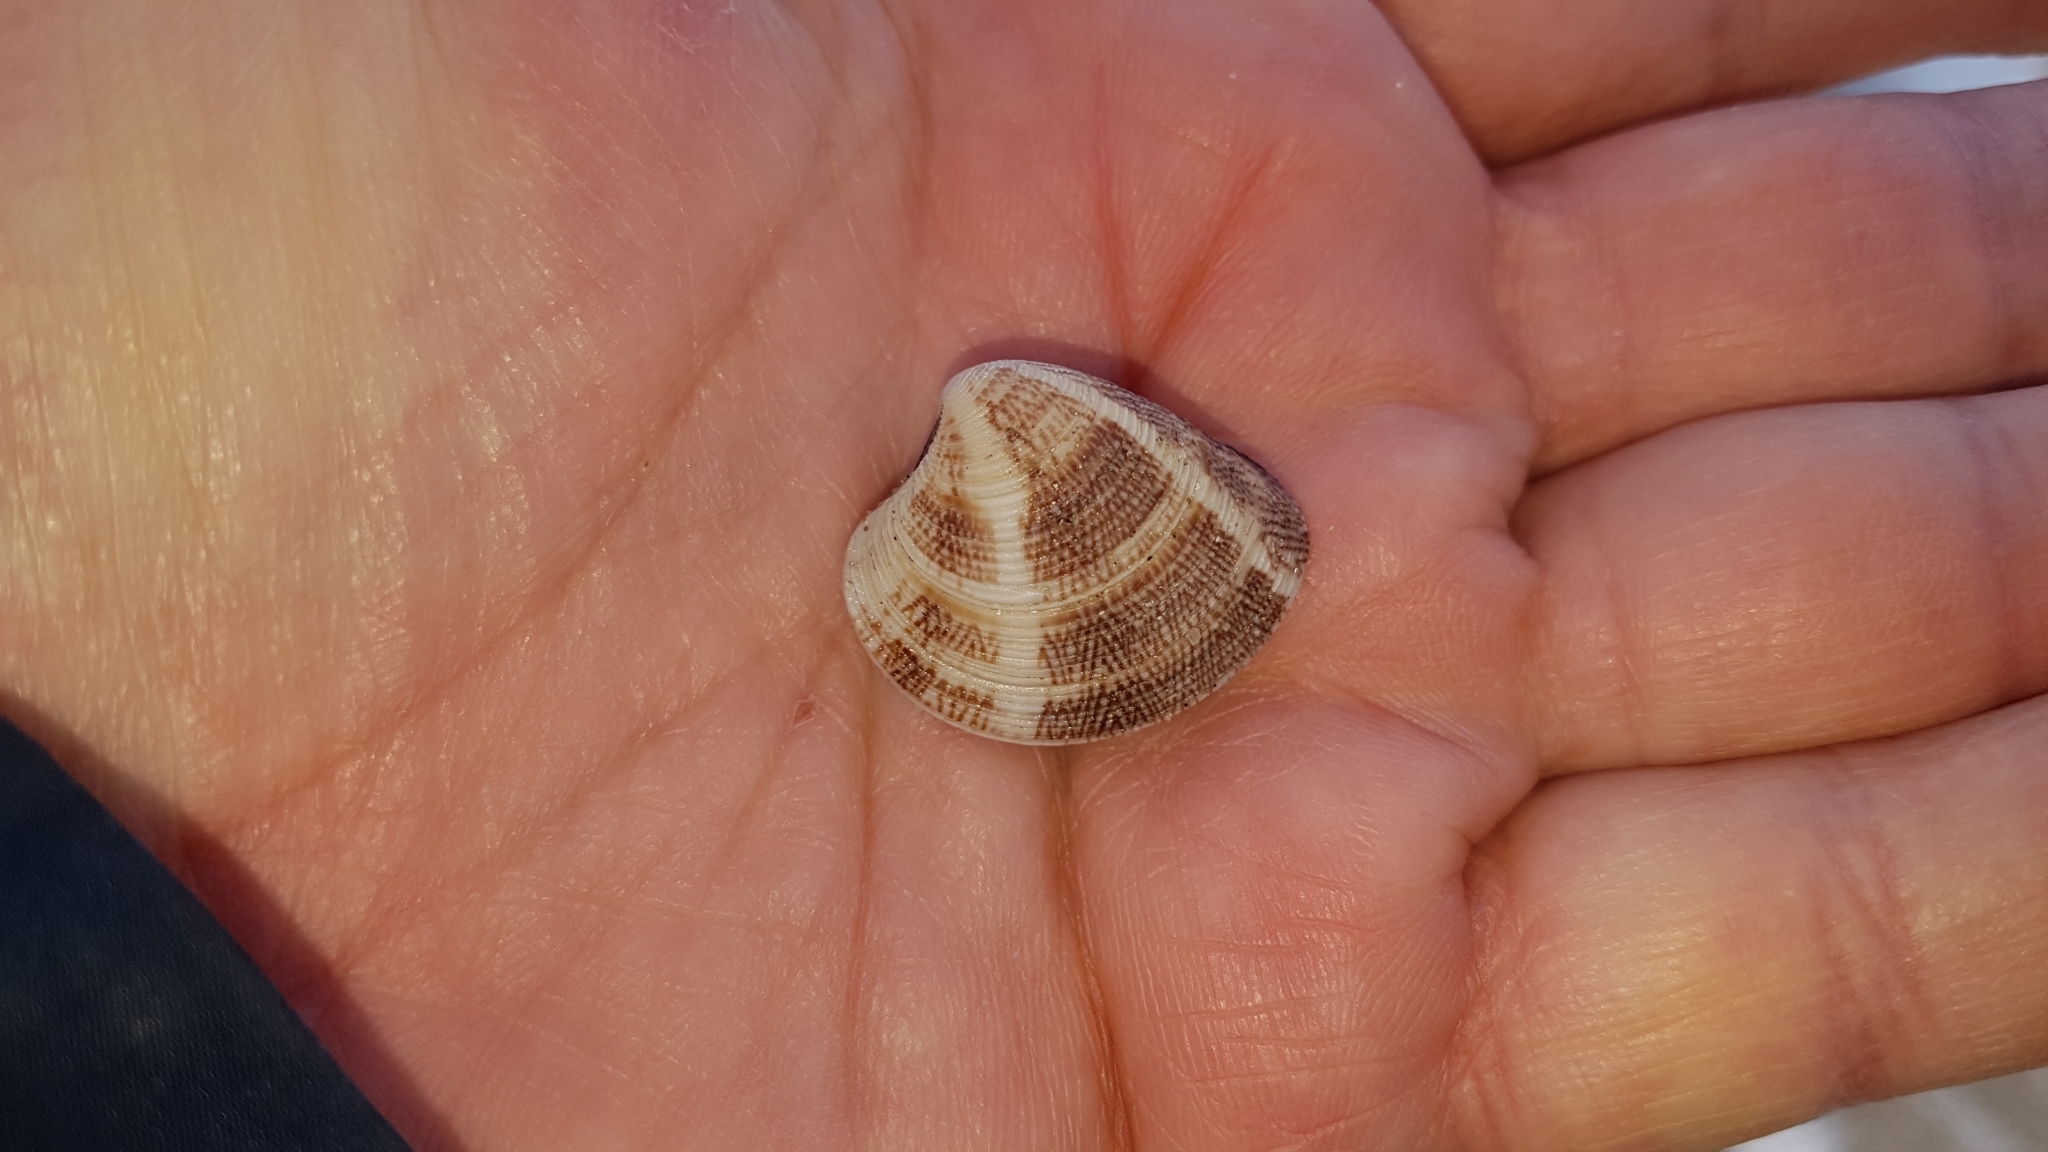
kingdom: Animalia
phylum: Mollusca
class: Bivalvia
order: Venerida
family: Veneridae
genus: Chamelea
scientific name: Chamelea striatula
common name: Striped venus
